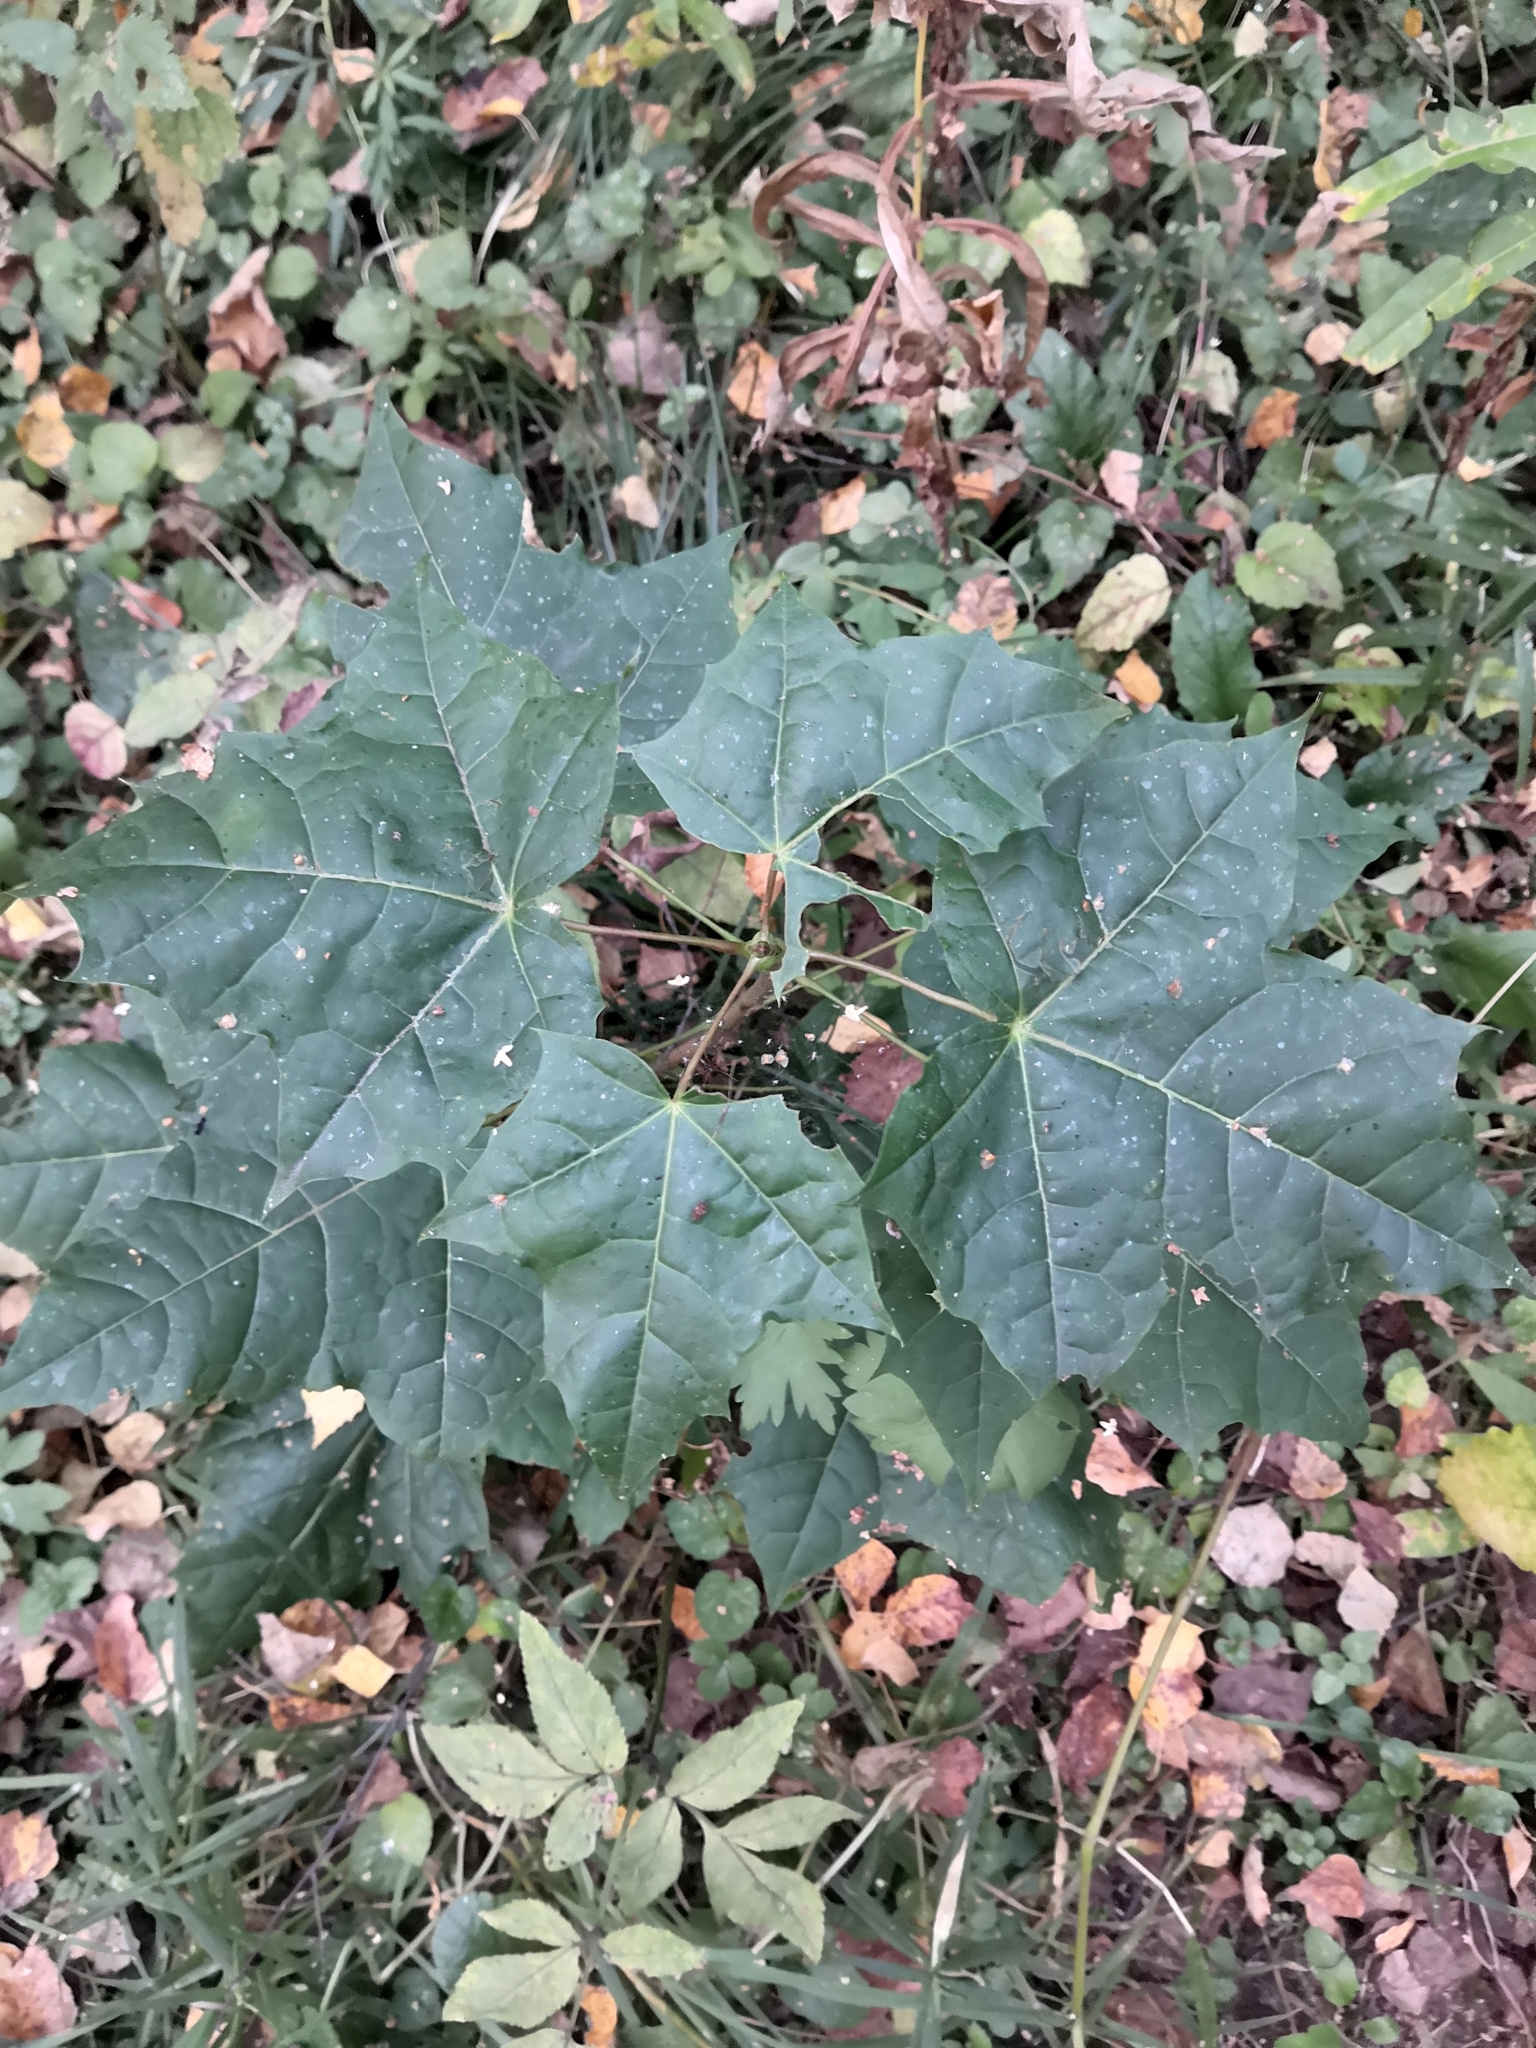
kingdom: Plantae
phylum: Tracheophyta
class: Magnoliopsida
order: Sapindales
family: Sapindaceae
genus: Acer
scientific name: Acer platanoides
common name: Norway maple
